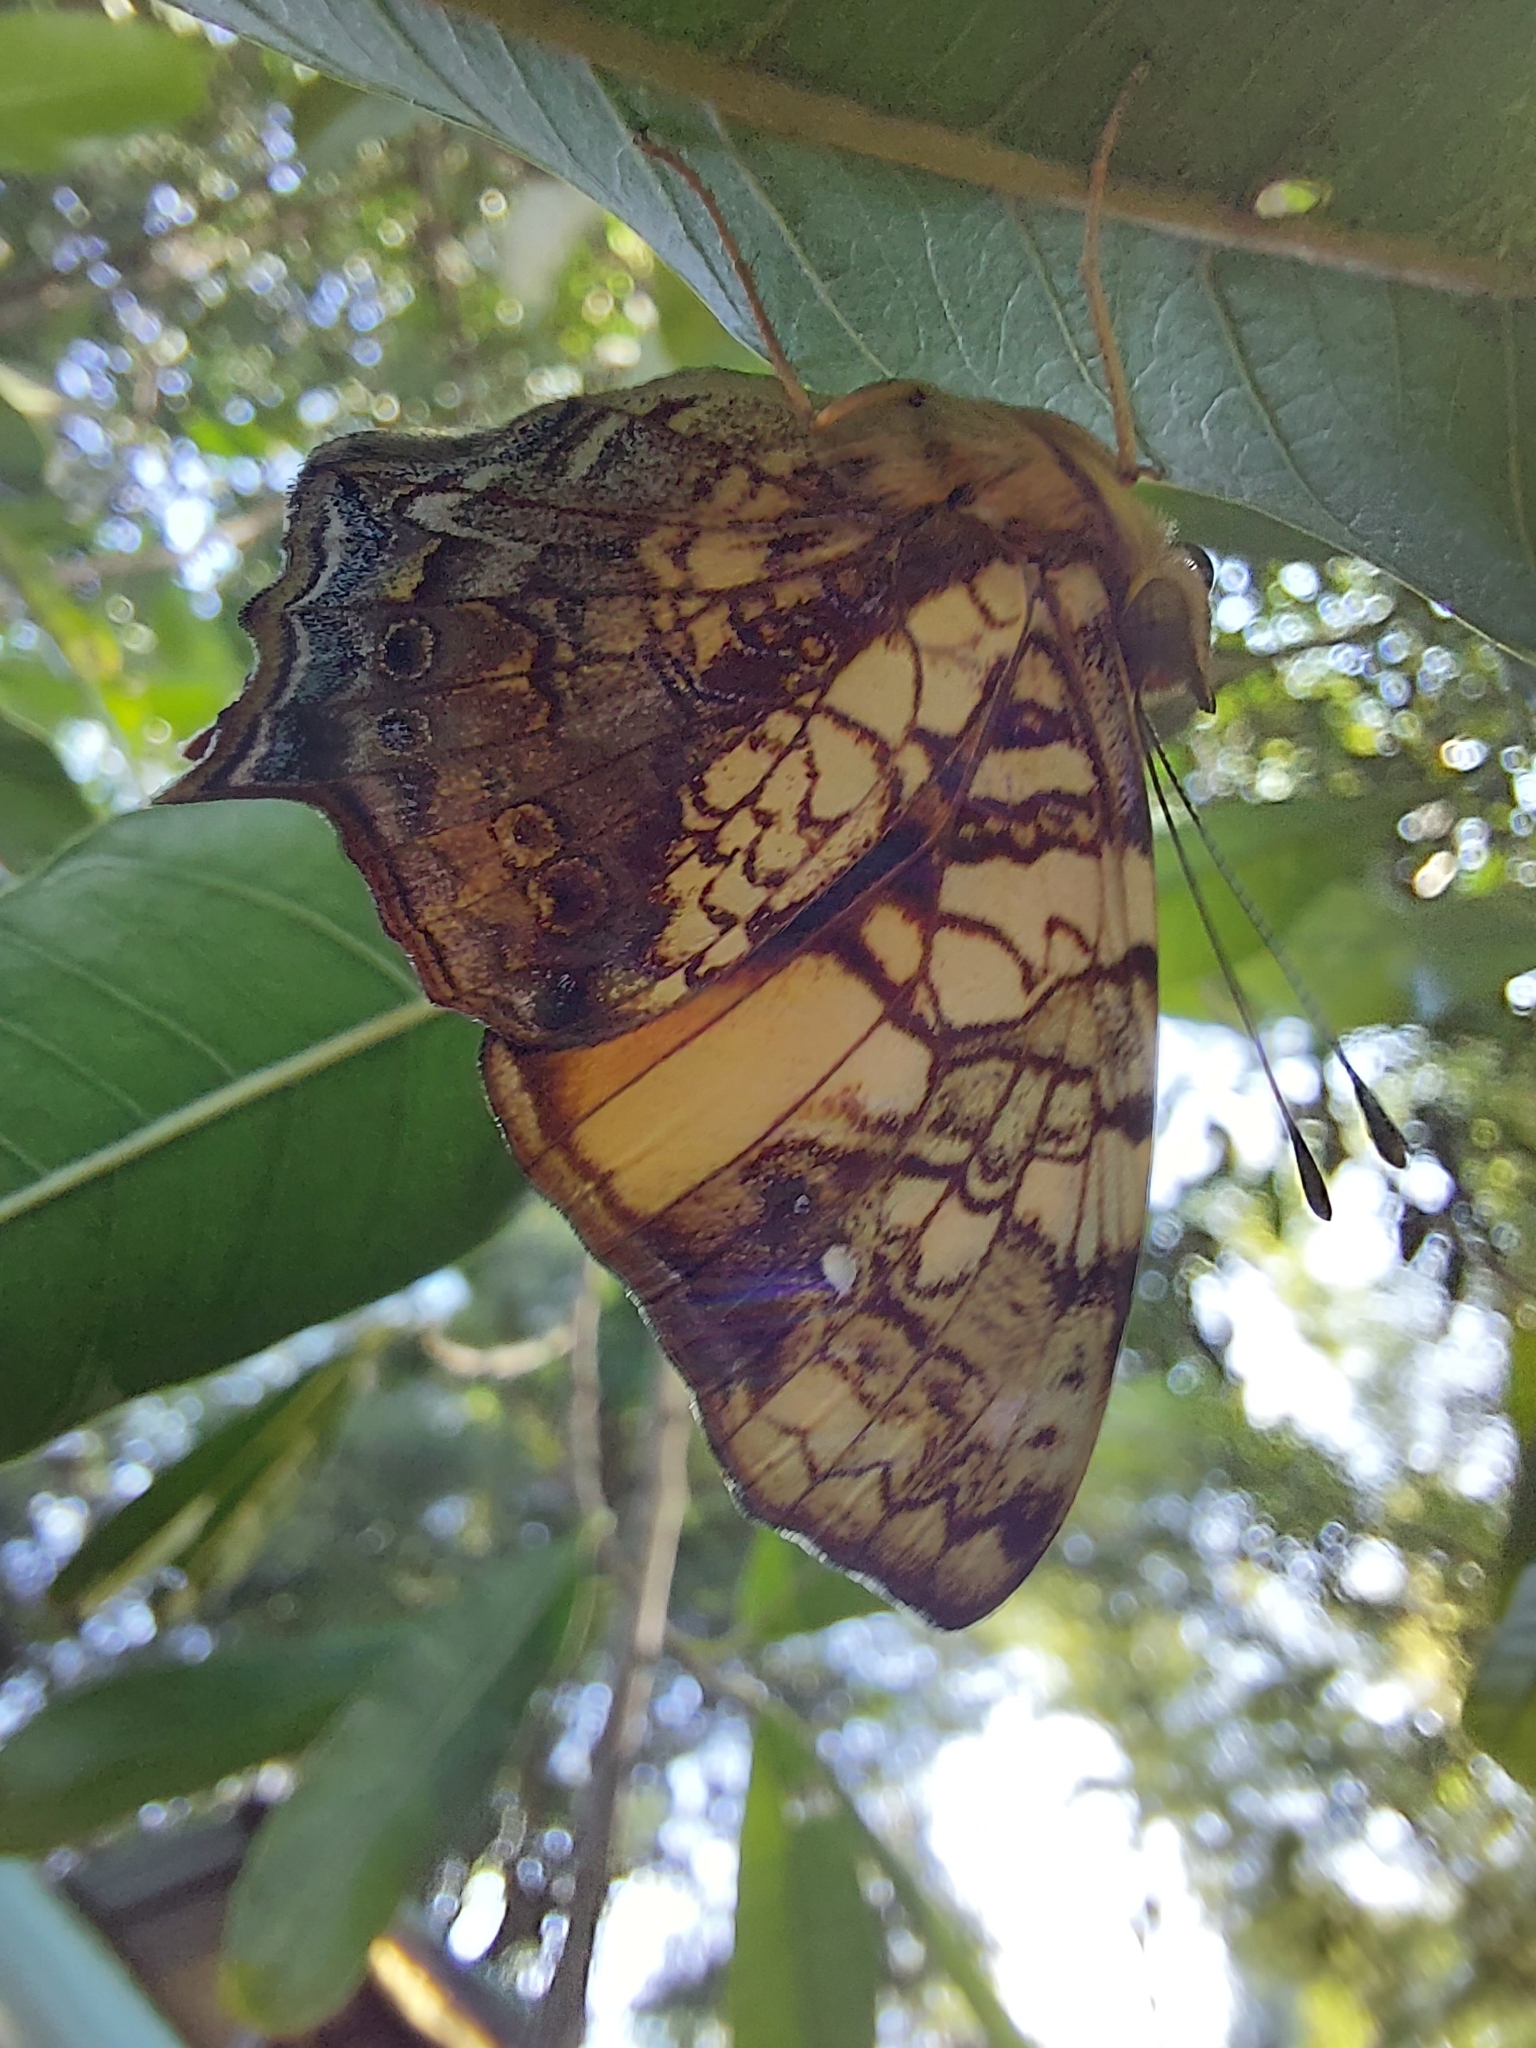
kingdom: Animalia
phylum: Arthropoda
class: Insecta
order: Lepidoptera
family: Nymphalidae
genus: Hypanartia
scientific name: Hypanartia lethe
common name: Orange mapwing
